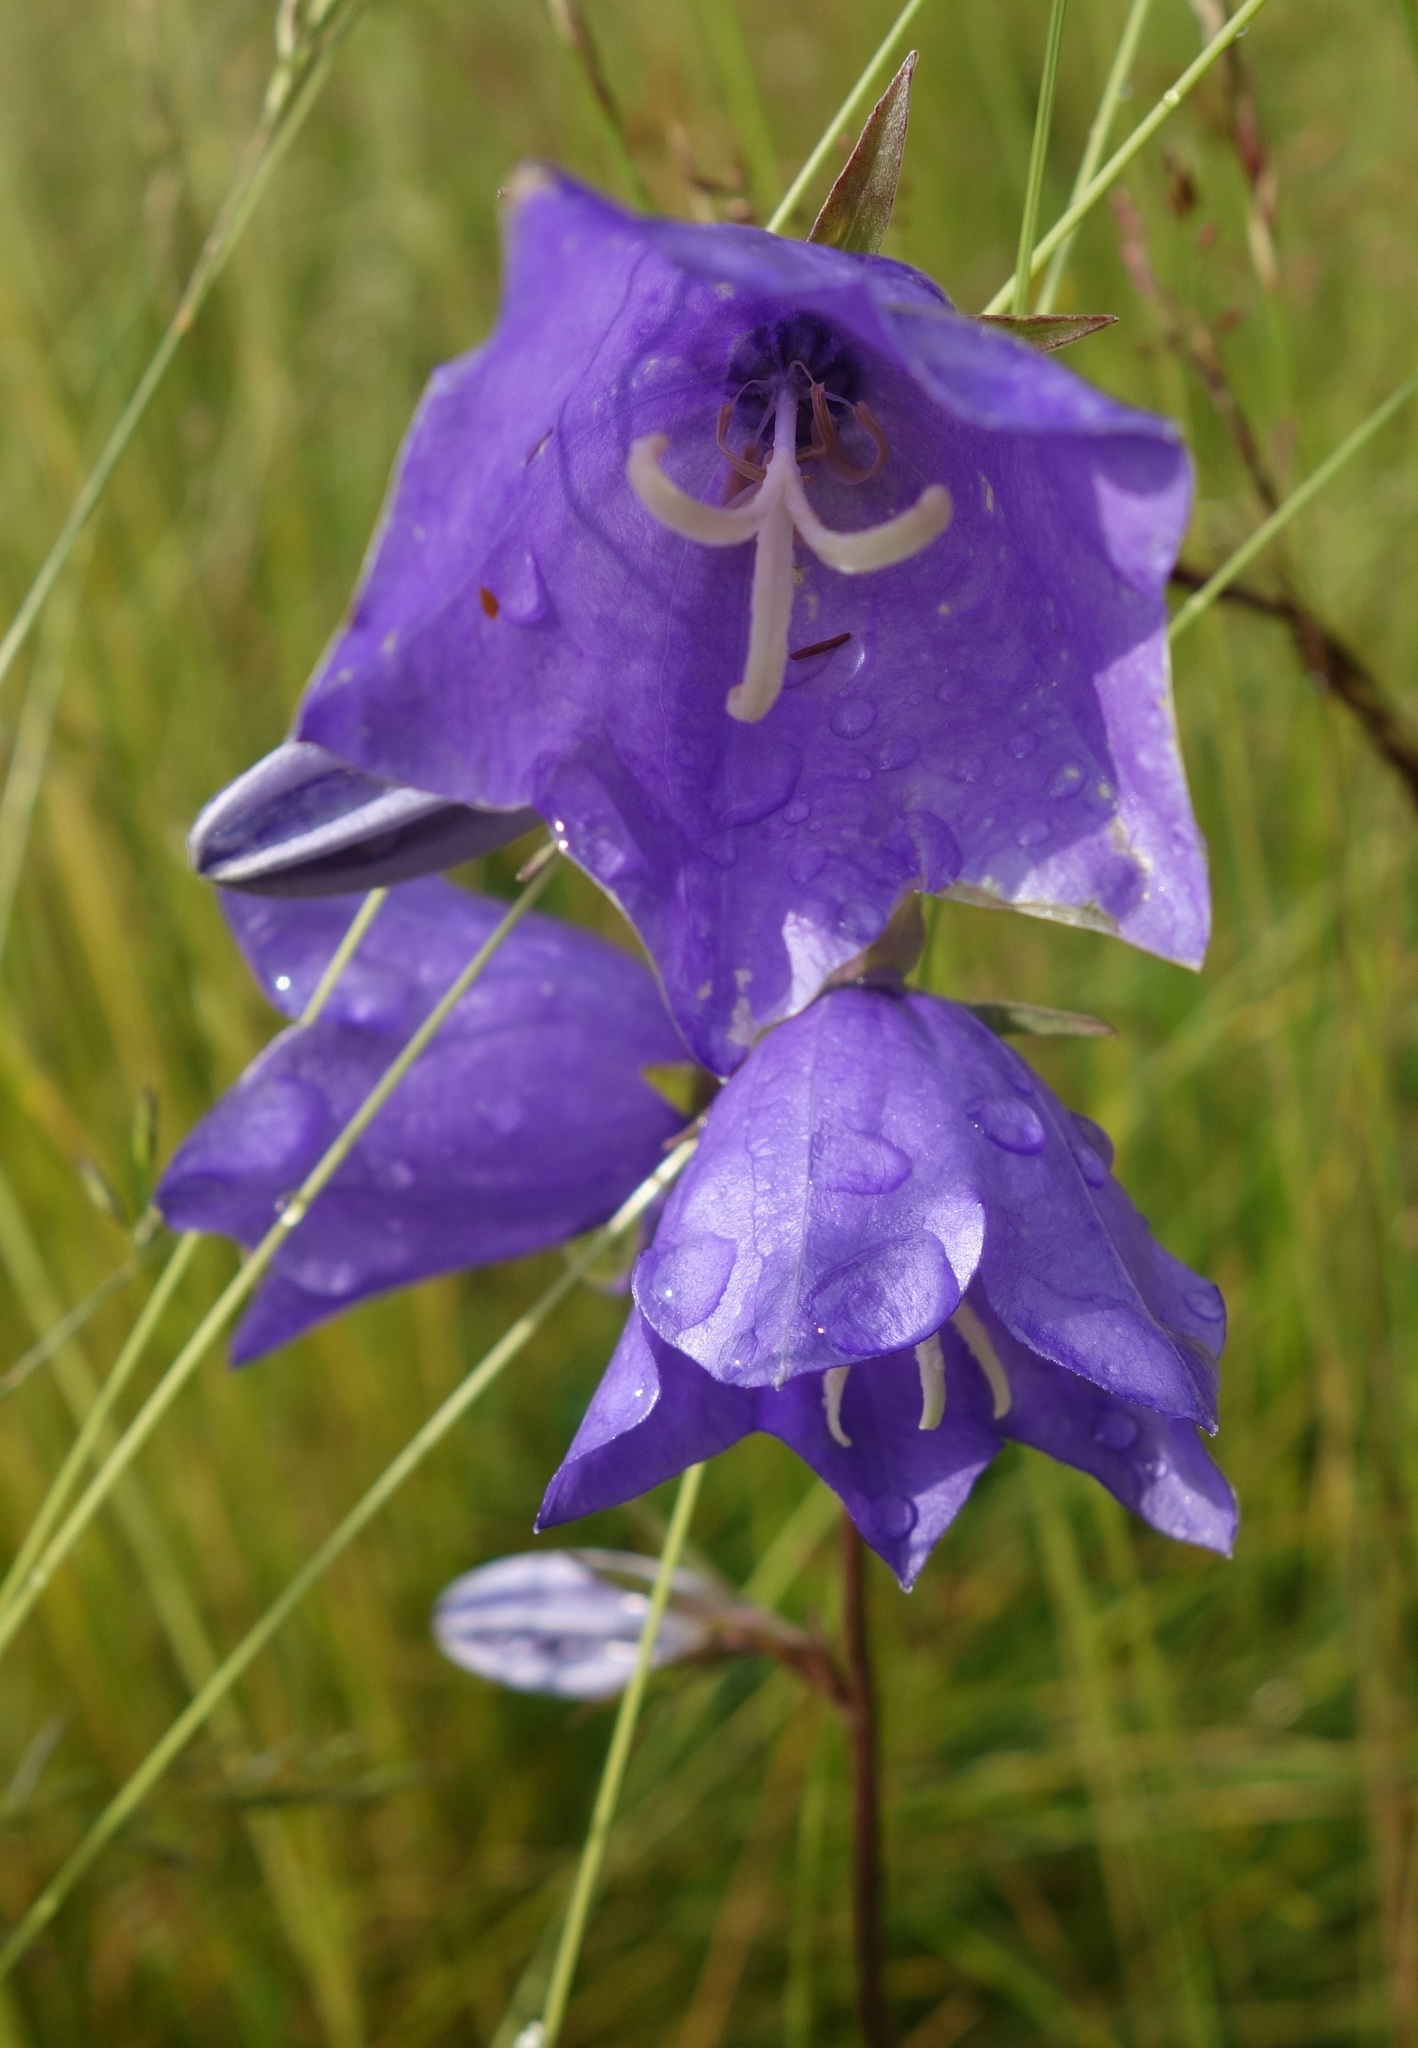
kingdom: Plantae
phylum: Tracheophyta
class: Magnoliopsida
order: Asterales
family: Campanulaceae
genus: Campanula
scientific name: Campanula persicifolia
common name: Peach-leaved bellflower
